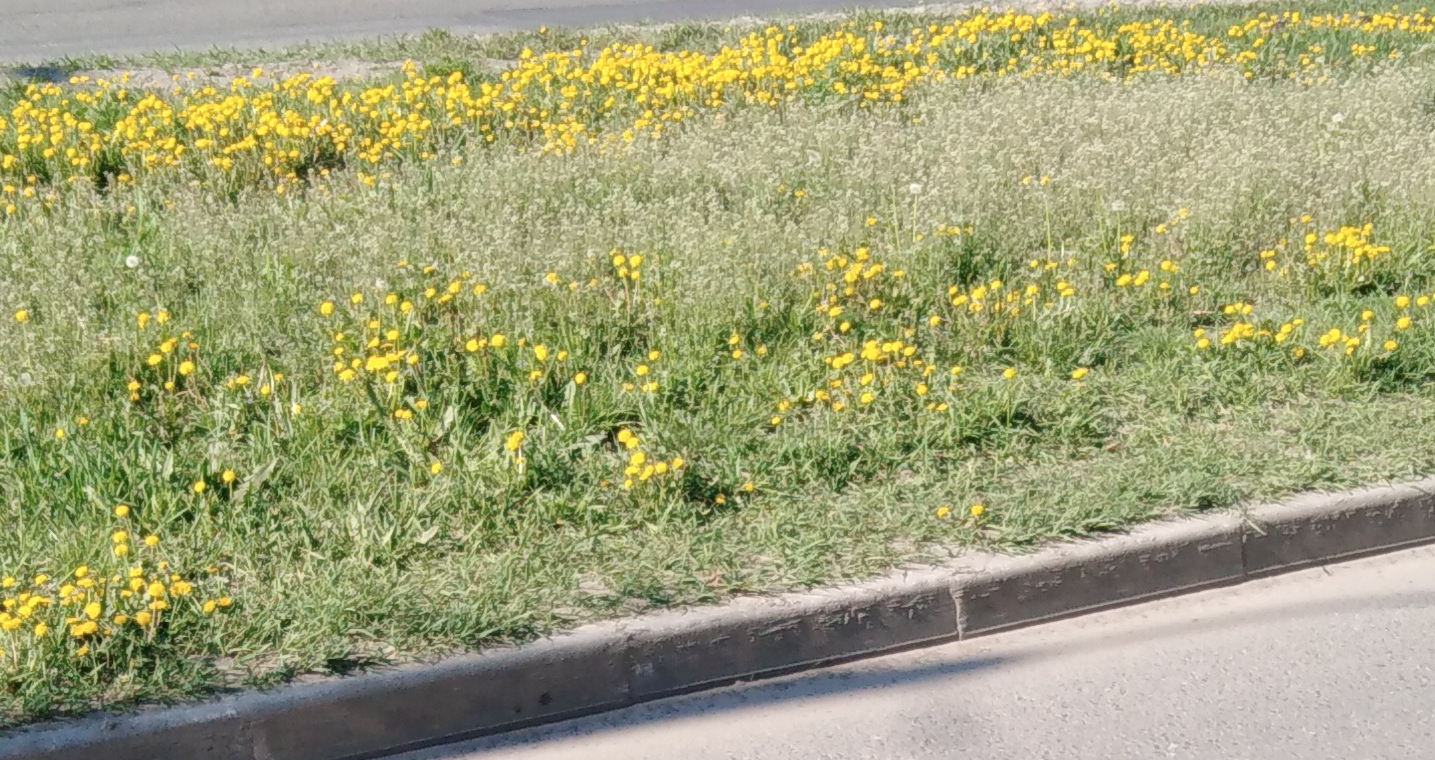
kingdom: Plantae
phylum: Tracheophyta
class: Magnoliopsida
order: Asterales
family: Asteraceae
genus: Taraxacum
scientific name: Taraxacum officinale
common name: Common dandelion
